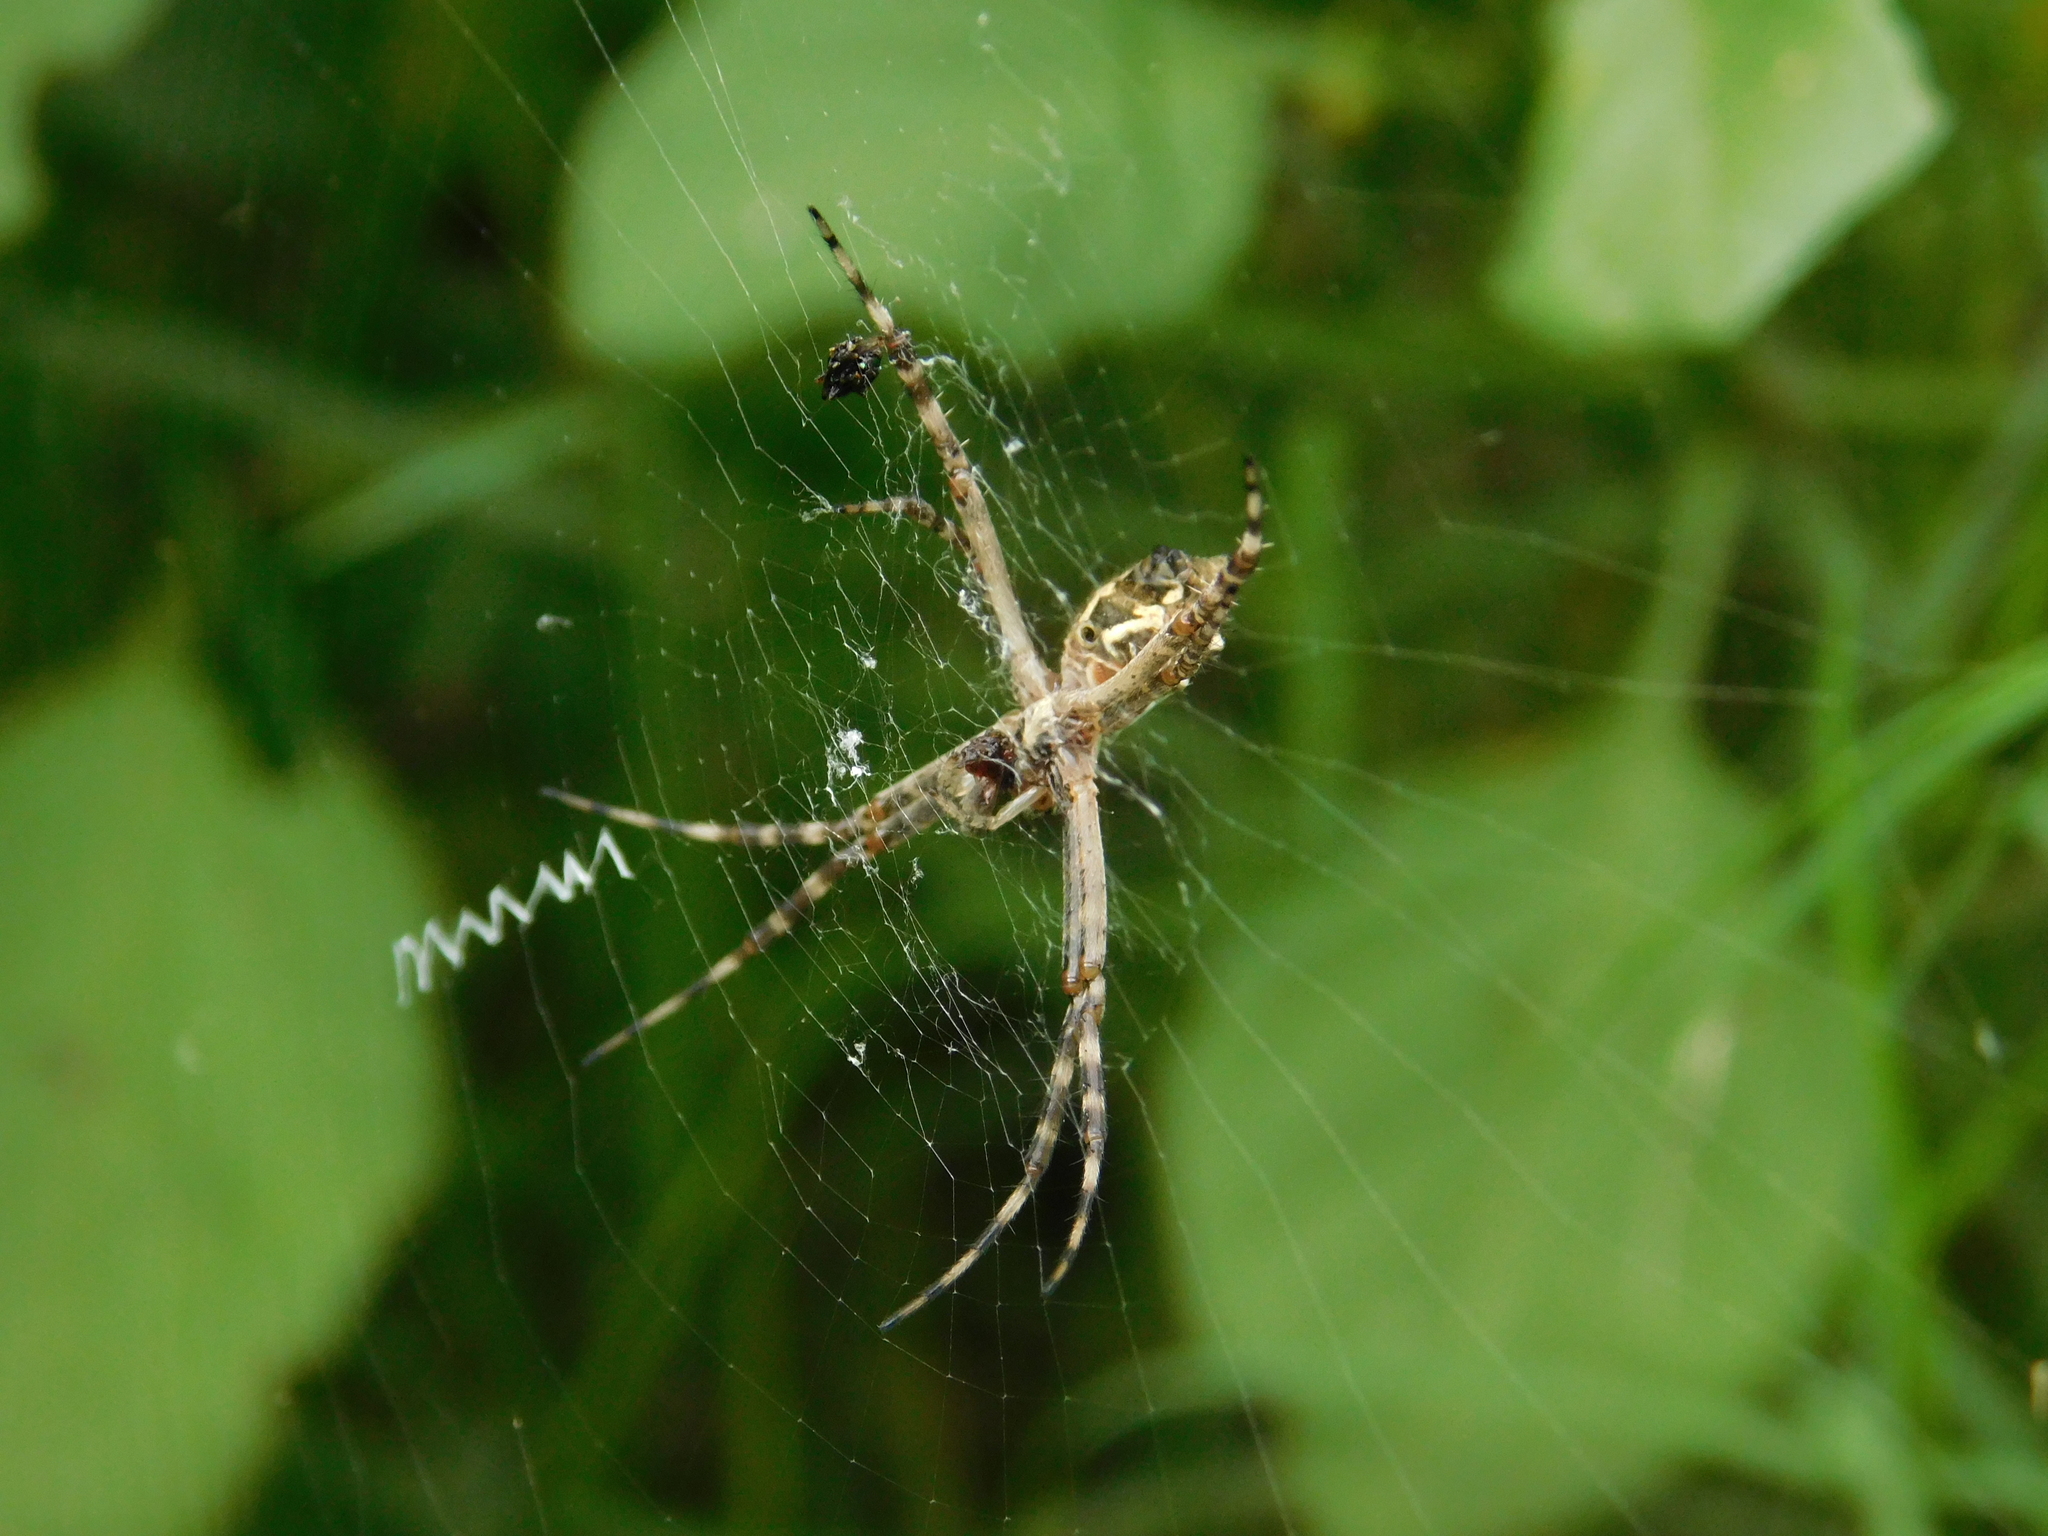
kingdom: Animalia
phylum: Arthropoda
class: Arachnida
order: Araneae
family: Araneidae
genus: Argiope
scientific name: Argiope argentata
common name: Orb weavers
